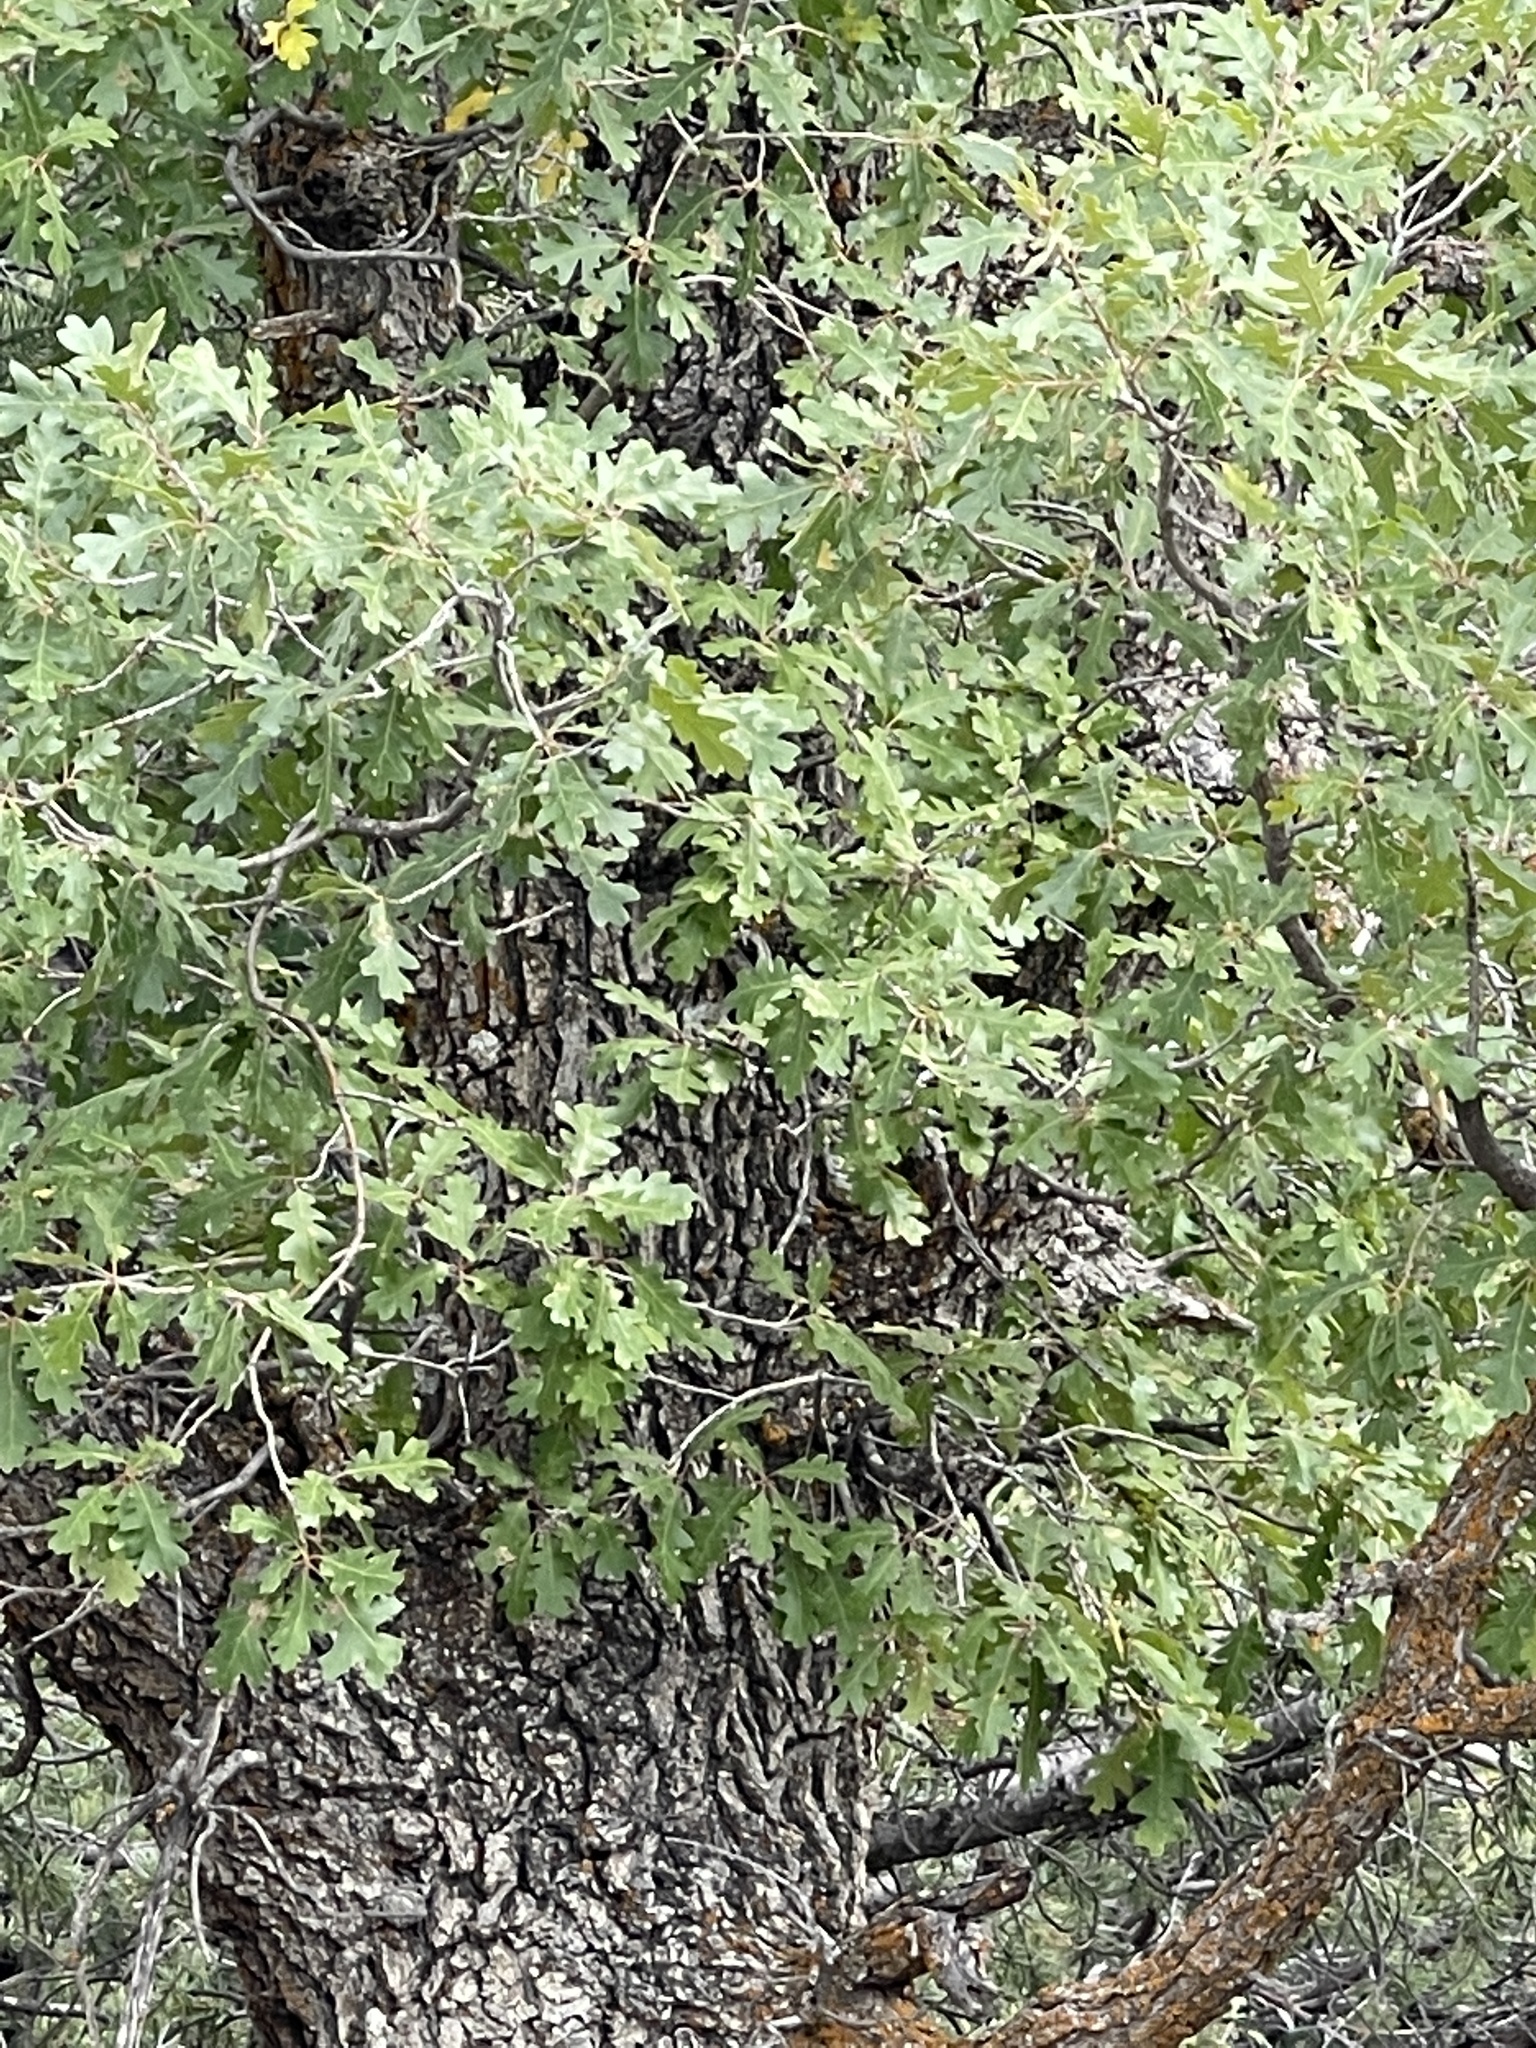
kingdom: Plantae
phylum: Tracheophyta
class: Magnoliopsida
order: Fagales
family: Fagaceae
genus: Quercus
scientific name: Quercus gambelii
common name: Gambel oak
